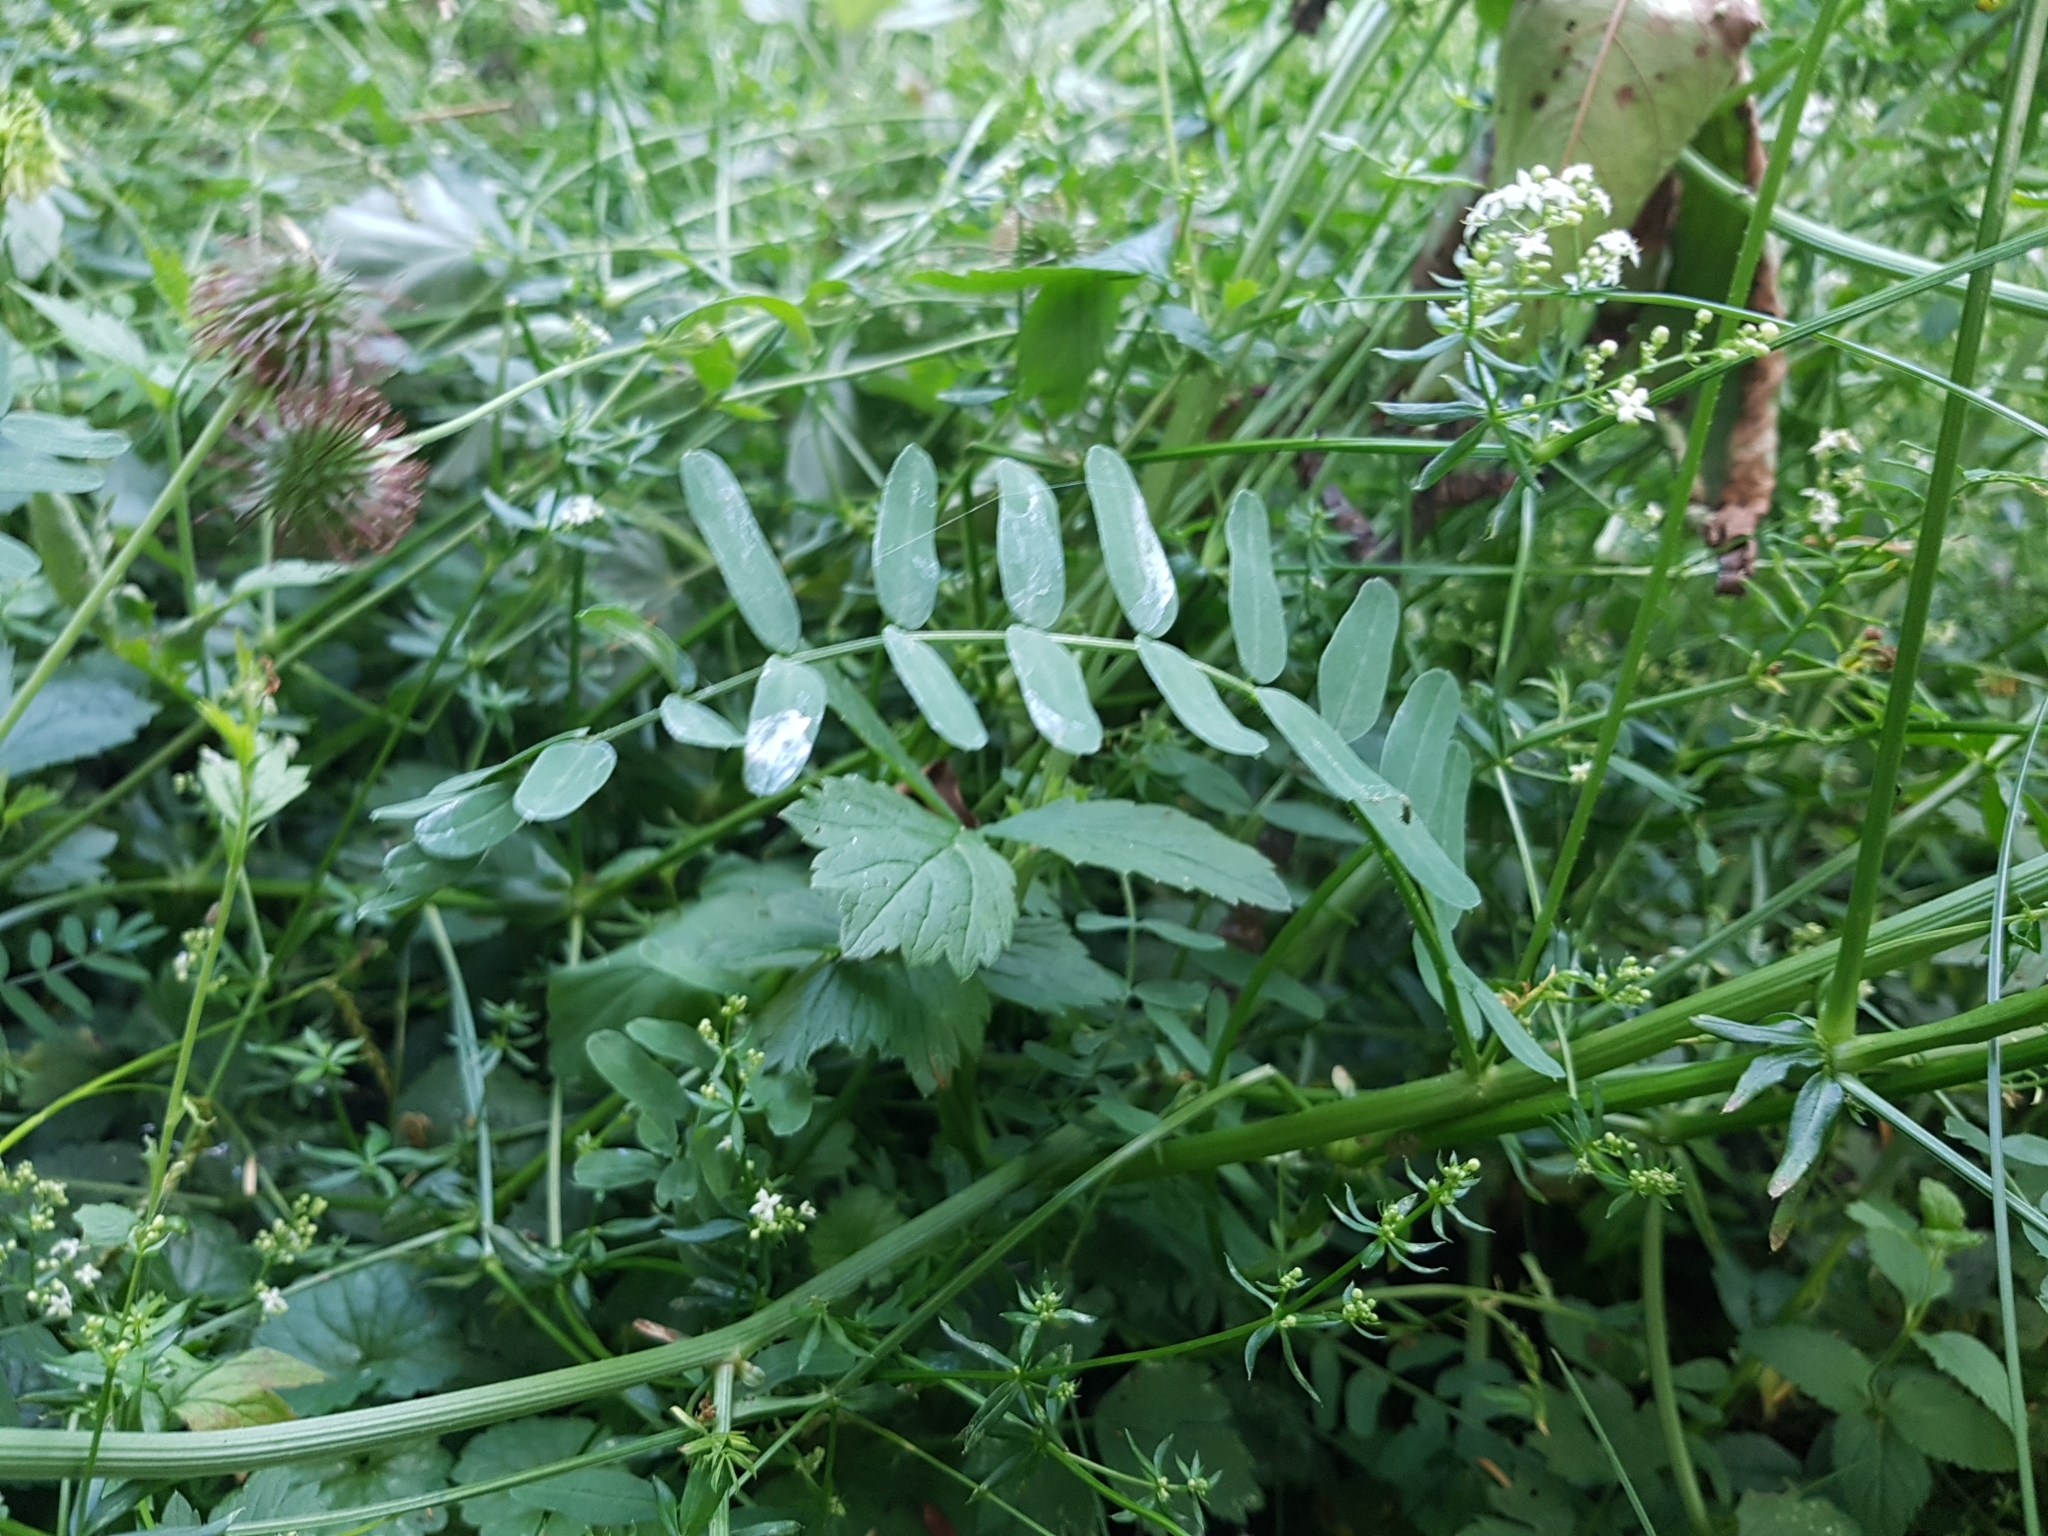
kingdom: Plantae
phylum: Tracheophyta
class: Magnoliopsida
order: Fabales
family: Fabaceae
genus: Coronilla
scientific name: Coronilla varia
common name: Crownvetch
